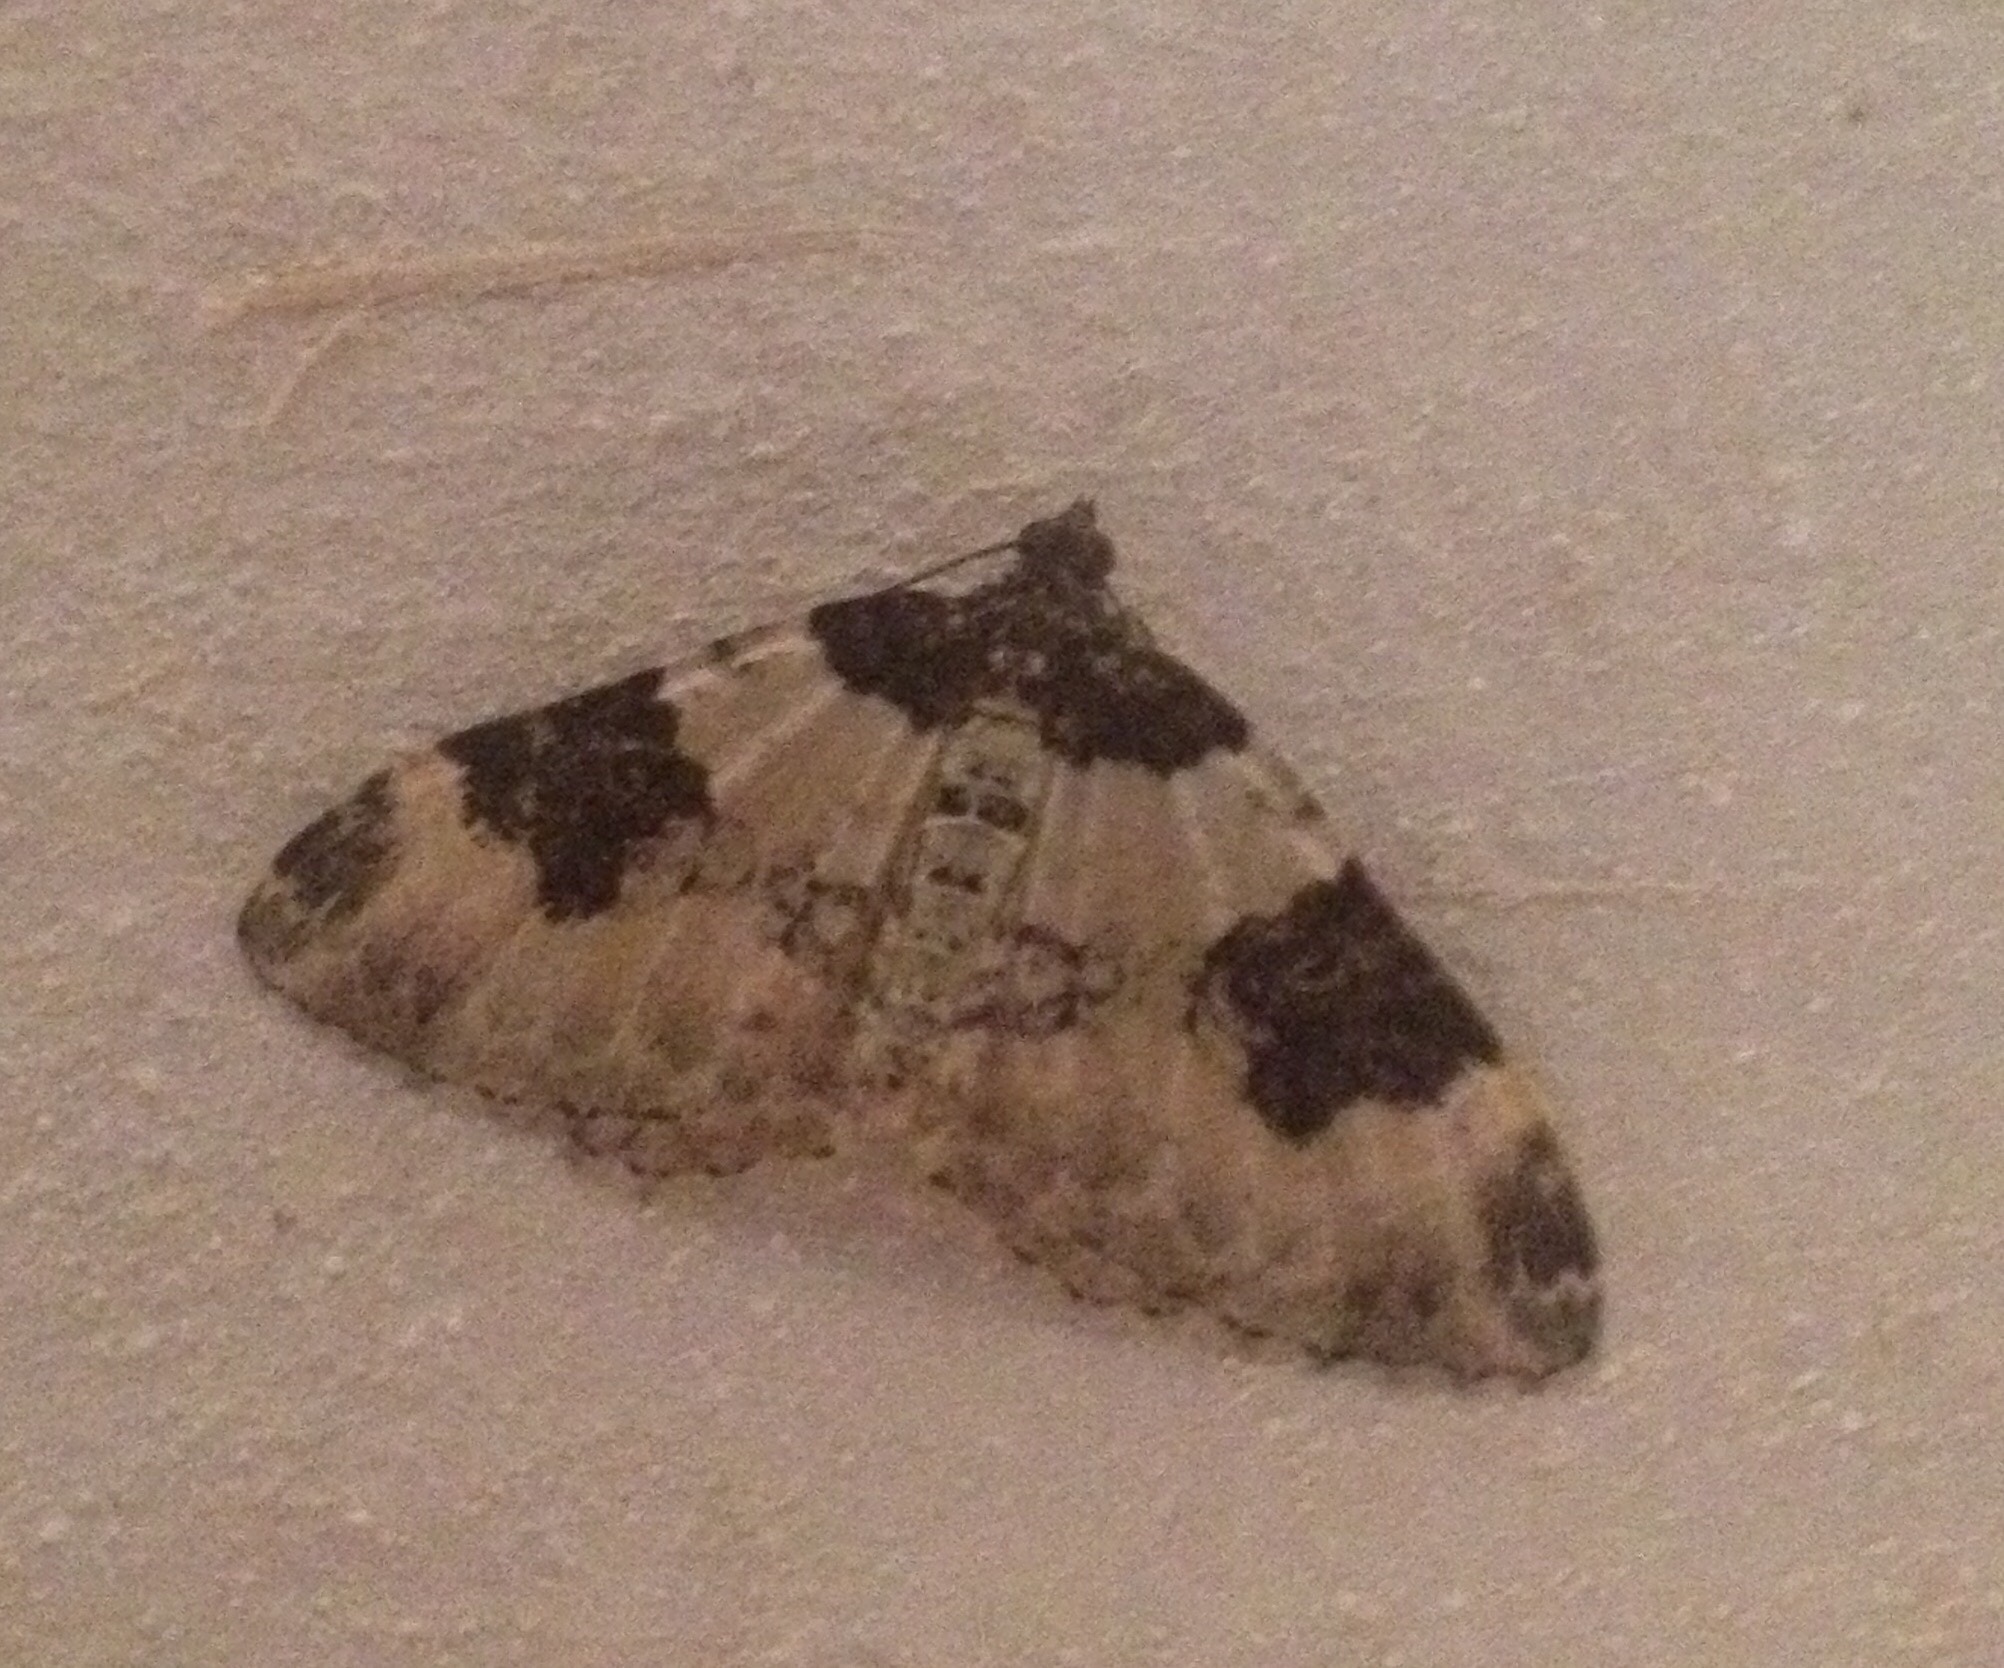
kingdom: Animalia
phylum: Arthropoda
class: Insecta
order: Lepidoptera
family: Geometridae
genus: Xanthorhoe
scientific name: Xanthorhoe fluctuata
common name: Garden carpet
